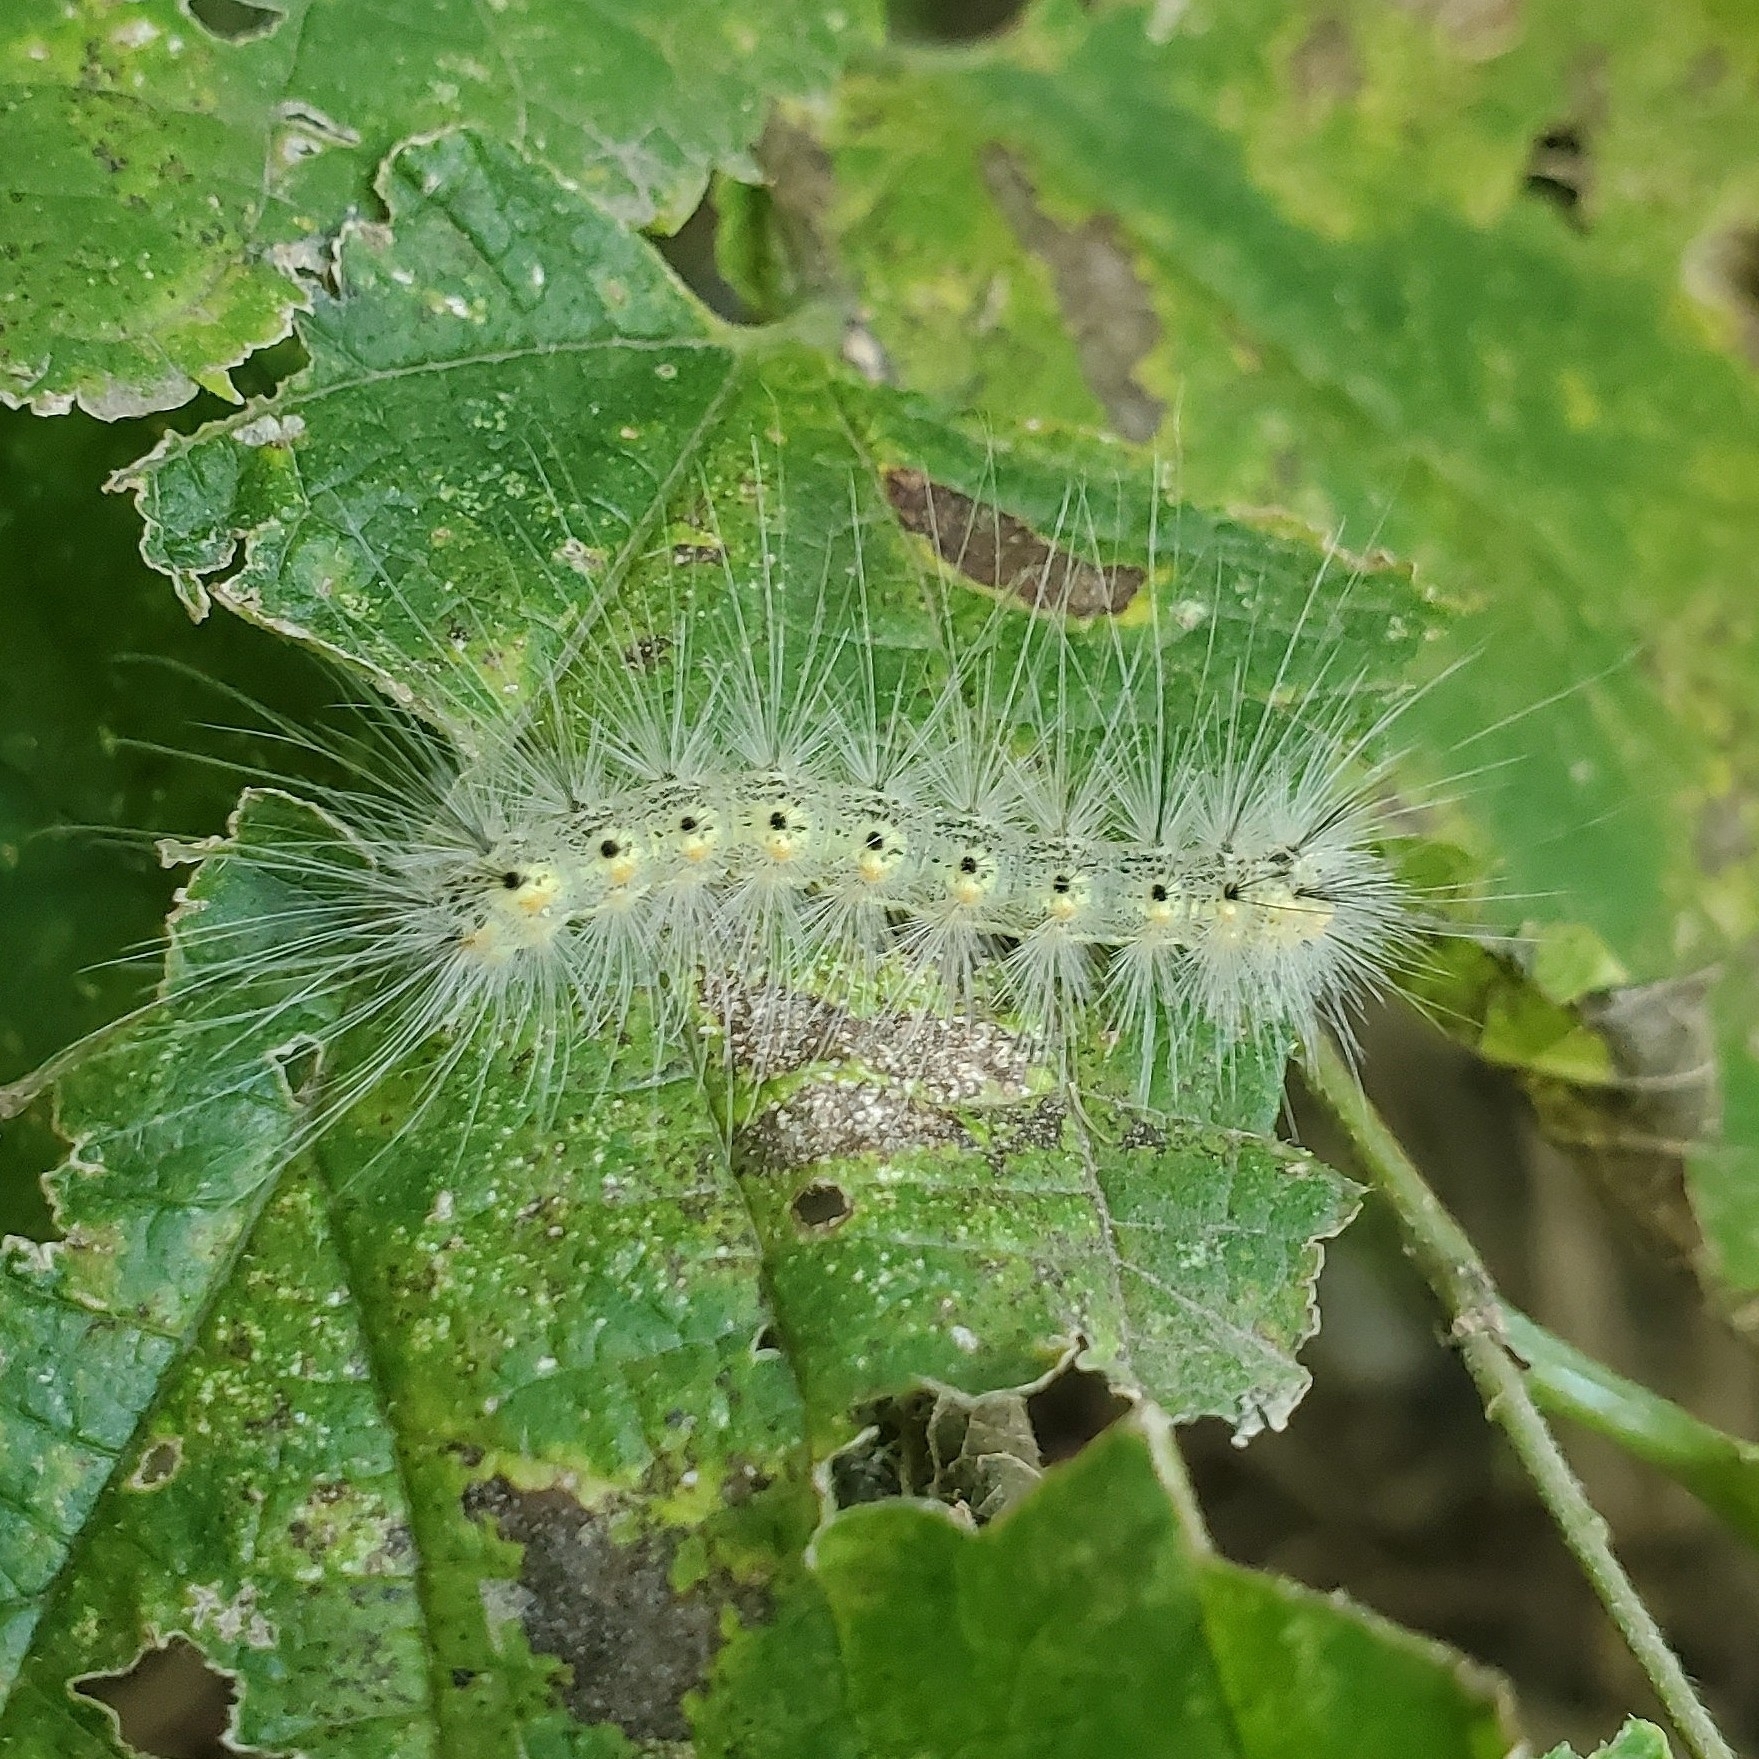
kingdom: Animalia
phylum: Arthropoda
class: Insecta
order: Lepidoptera
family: Erebidae
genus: Hyphantria
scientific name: Hyphantria cunea
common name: American white moth
